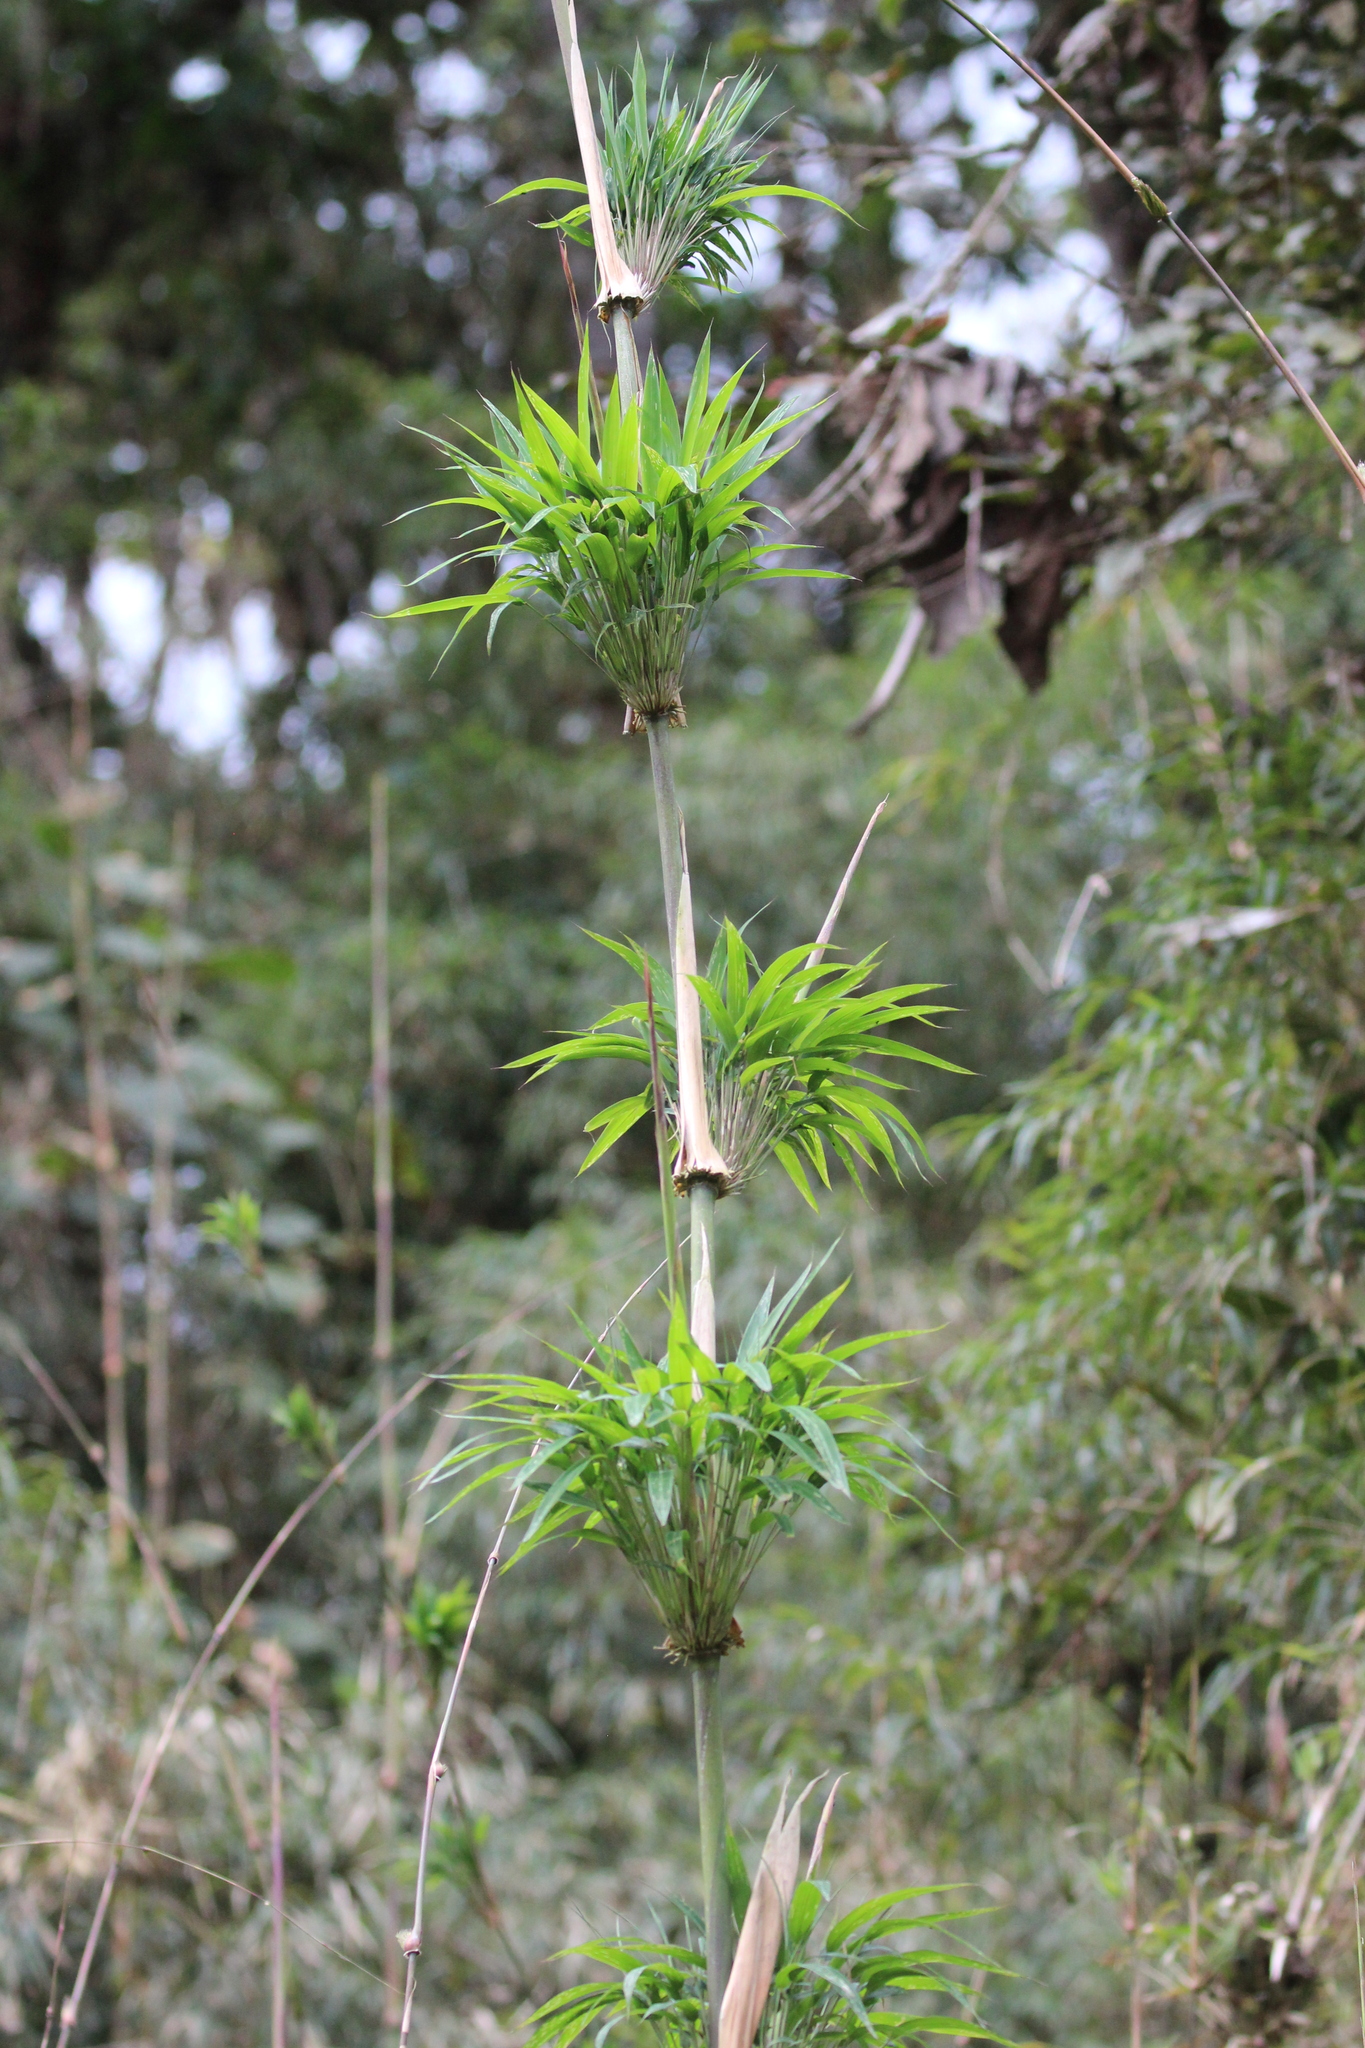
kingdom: Plantae
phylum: Tracheophyta
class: Liliopsida
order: Poales
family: Poaceae
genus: Chusquea
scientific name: Chusquea scandens
